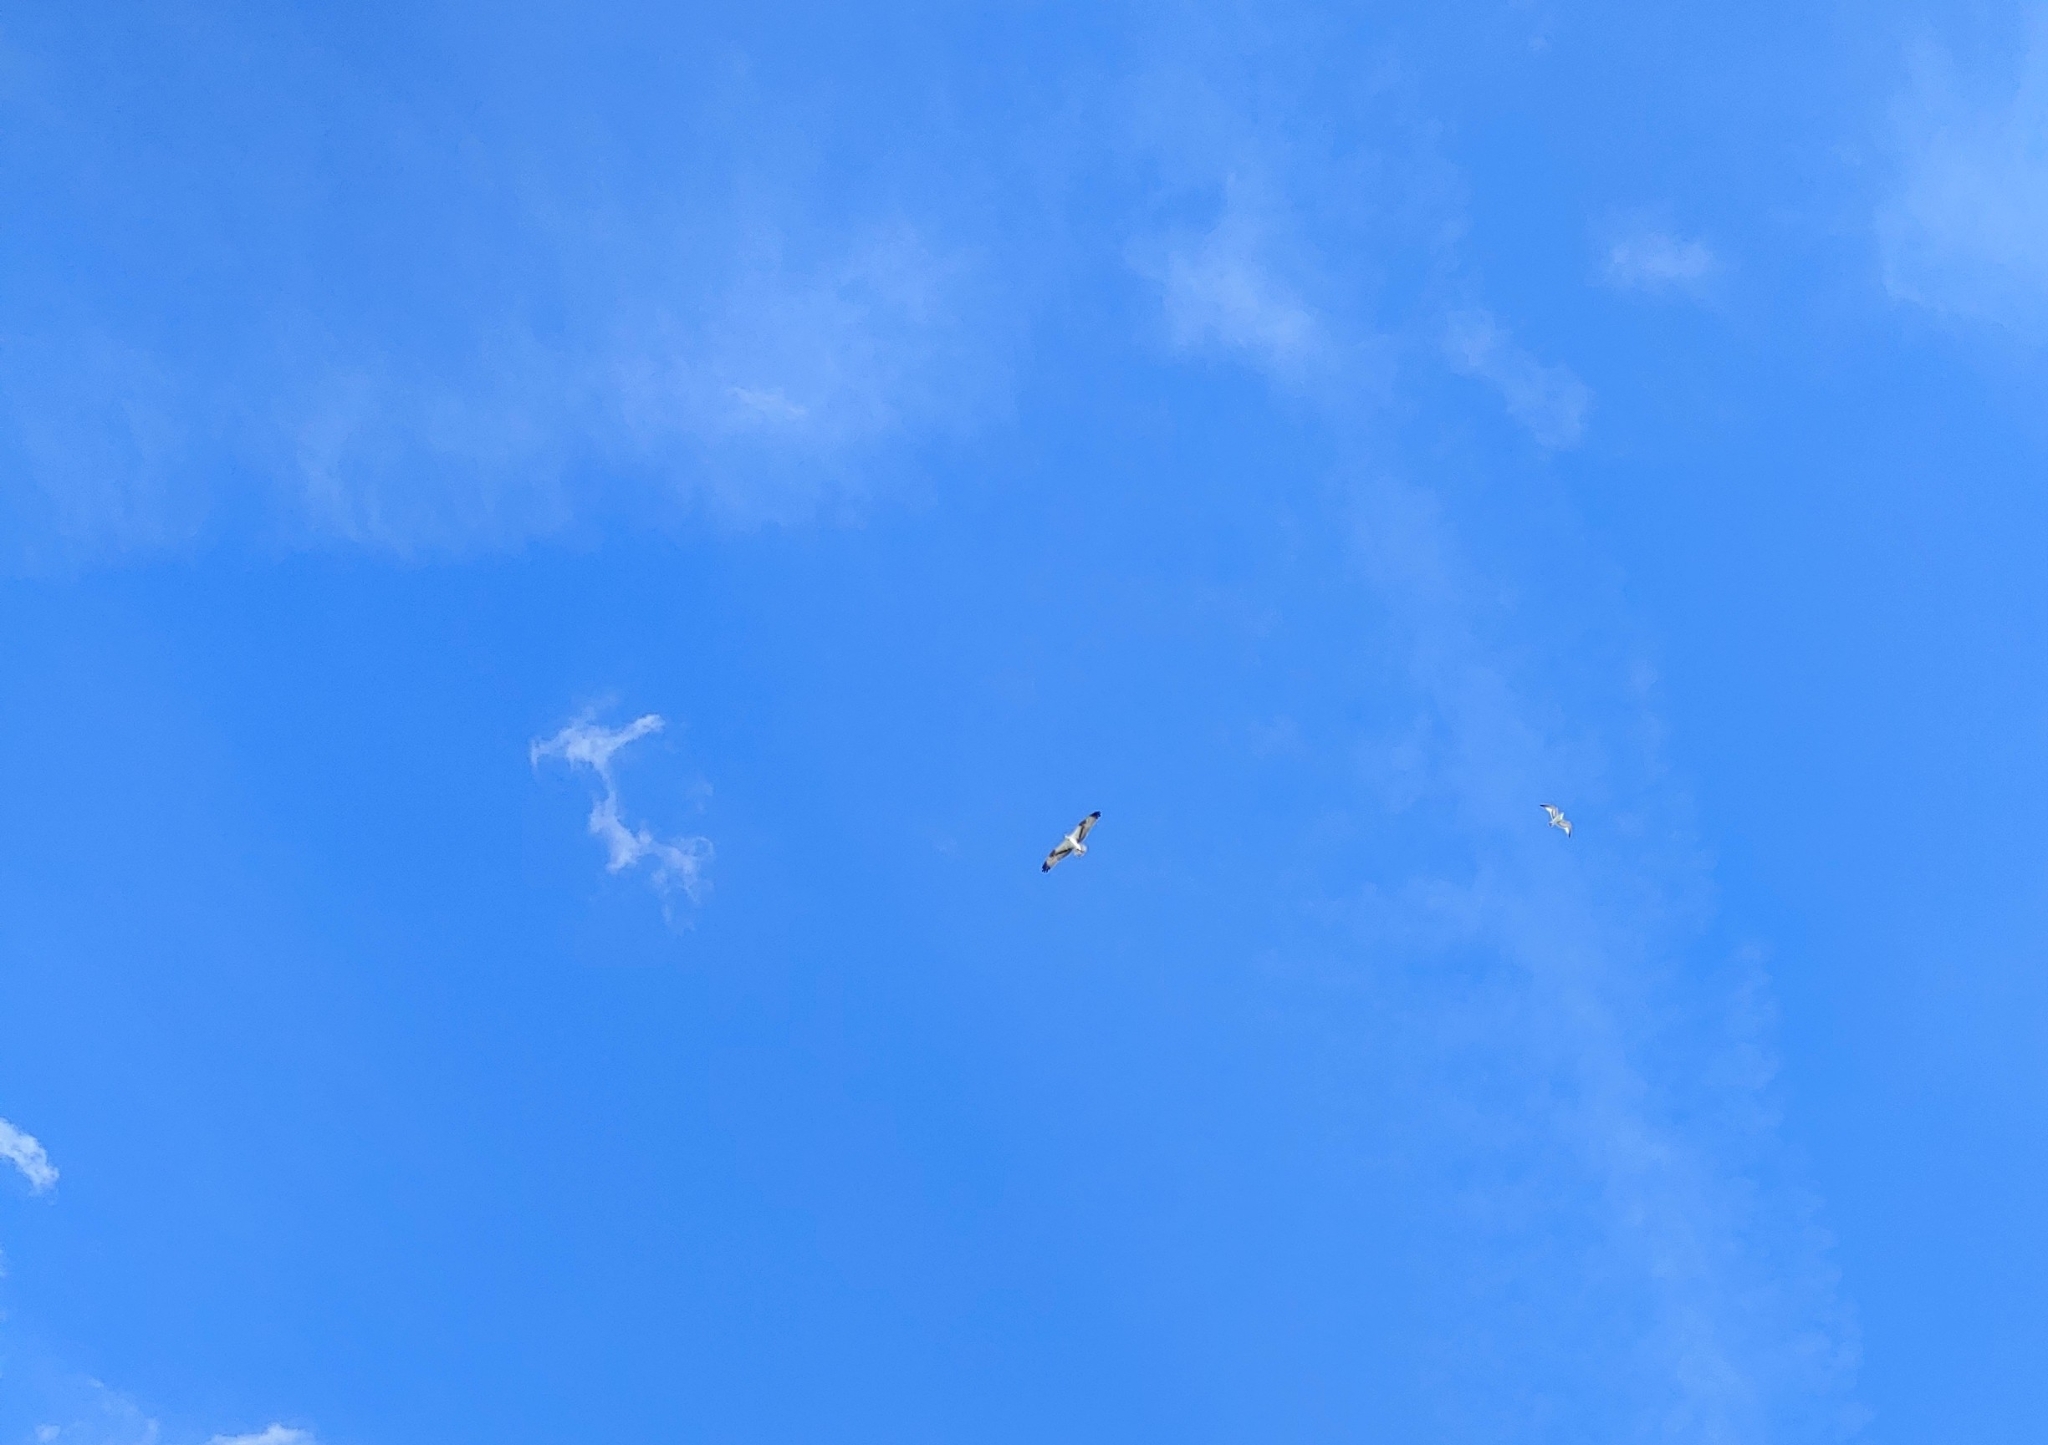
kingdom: Animalia
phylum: Chordata
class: Aves
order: Accipitriformes
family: Pandionidae
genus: Pandion
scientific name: Pandion haliaetus
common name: Osprey
